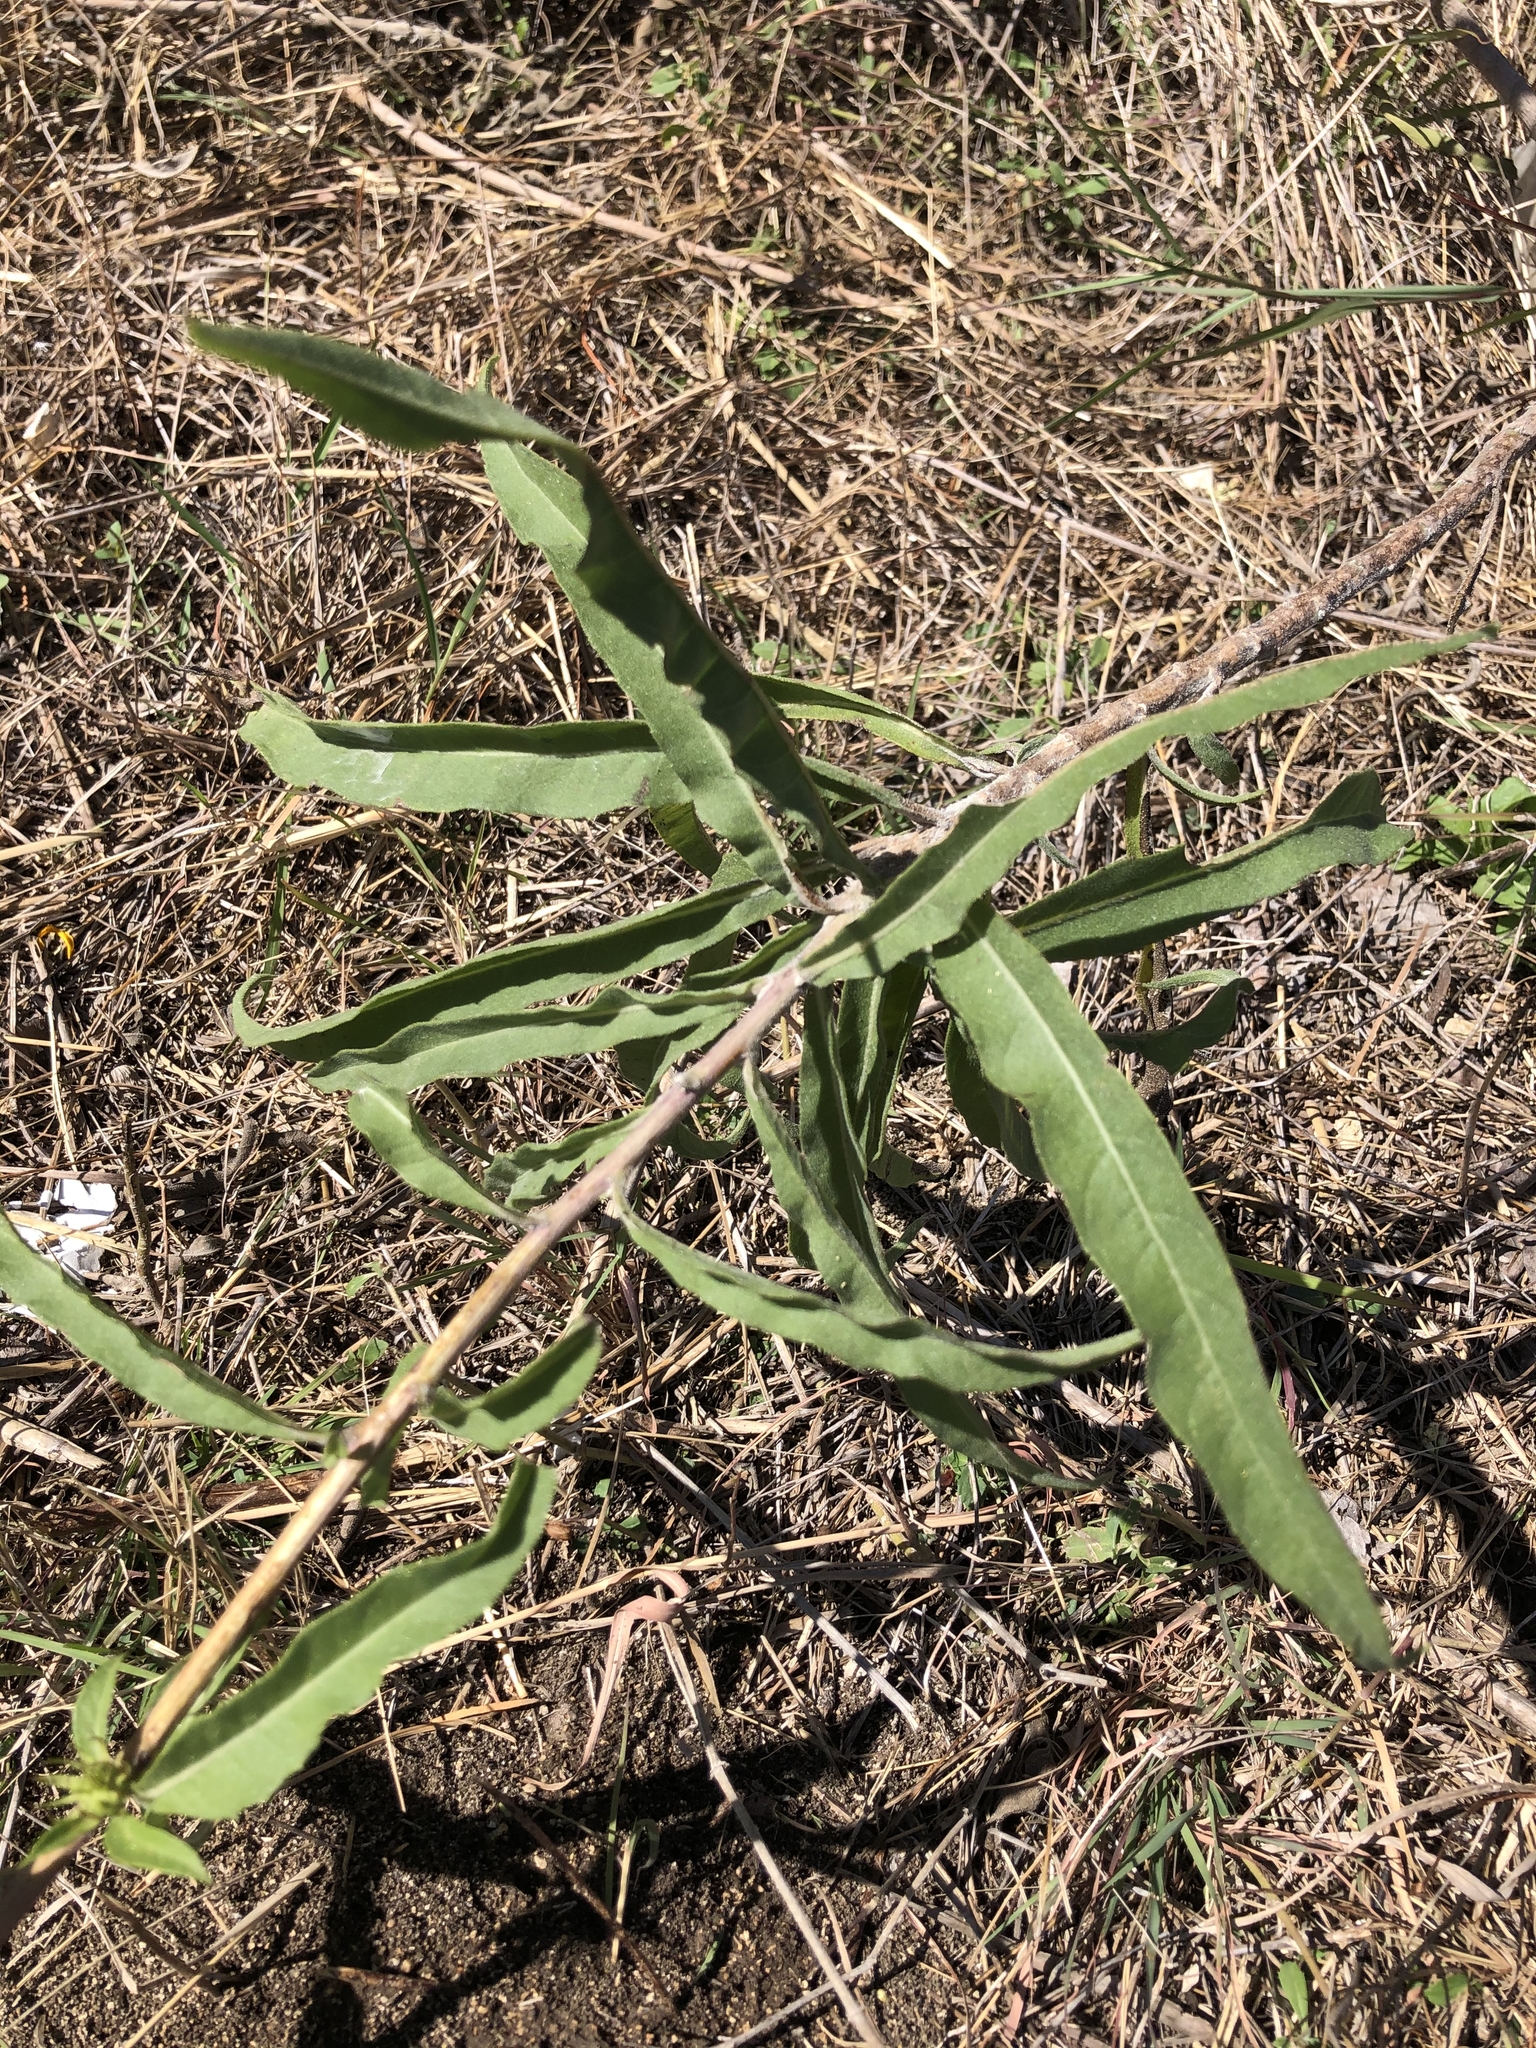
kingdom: Plantae
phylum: Tracheophyta
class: Magnoliopsida
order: Asterales
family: Asteraceae
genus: Helianthus
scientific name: Helianthus maximiliani
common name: Maximilian's sunflower
